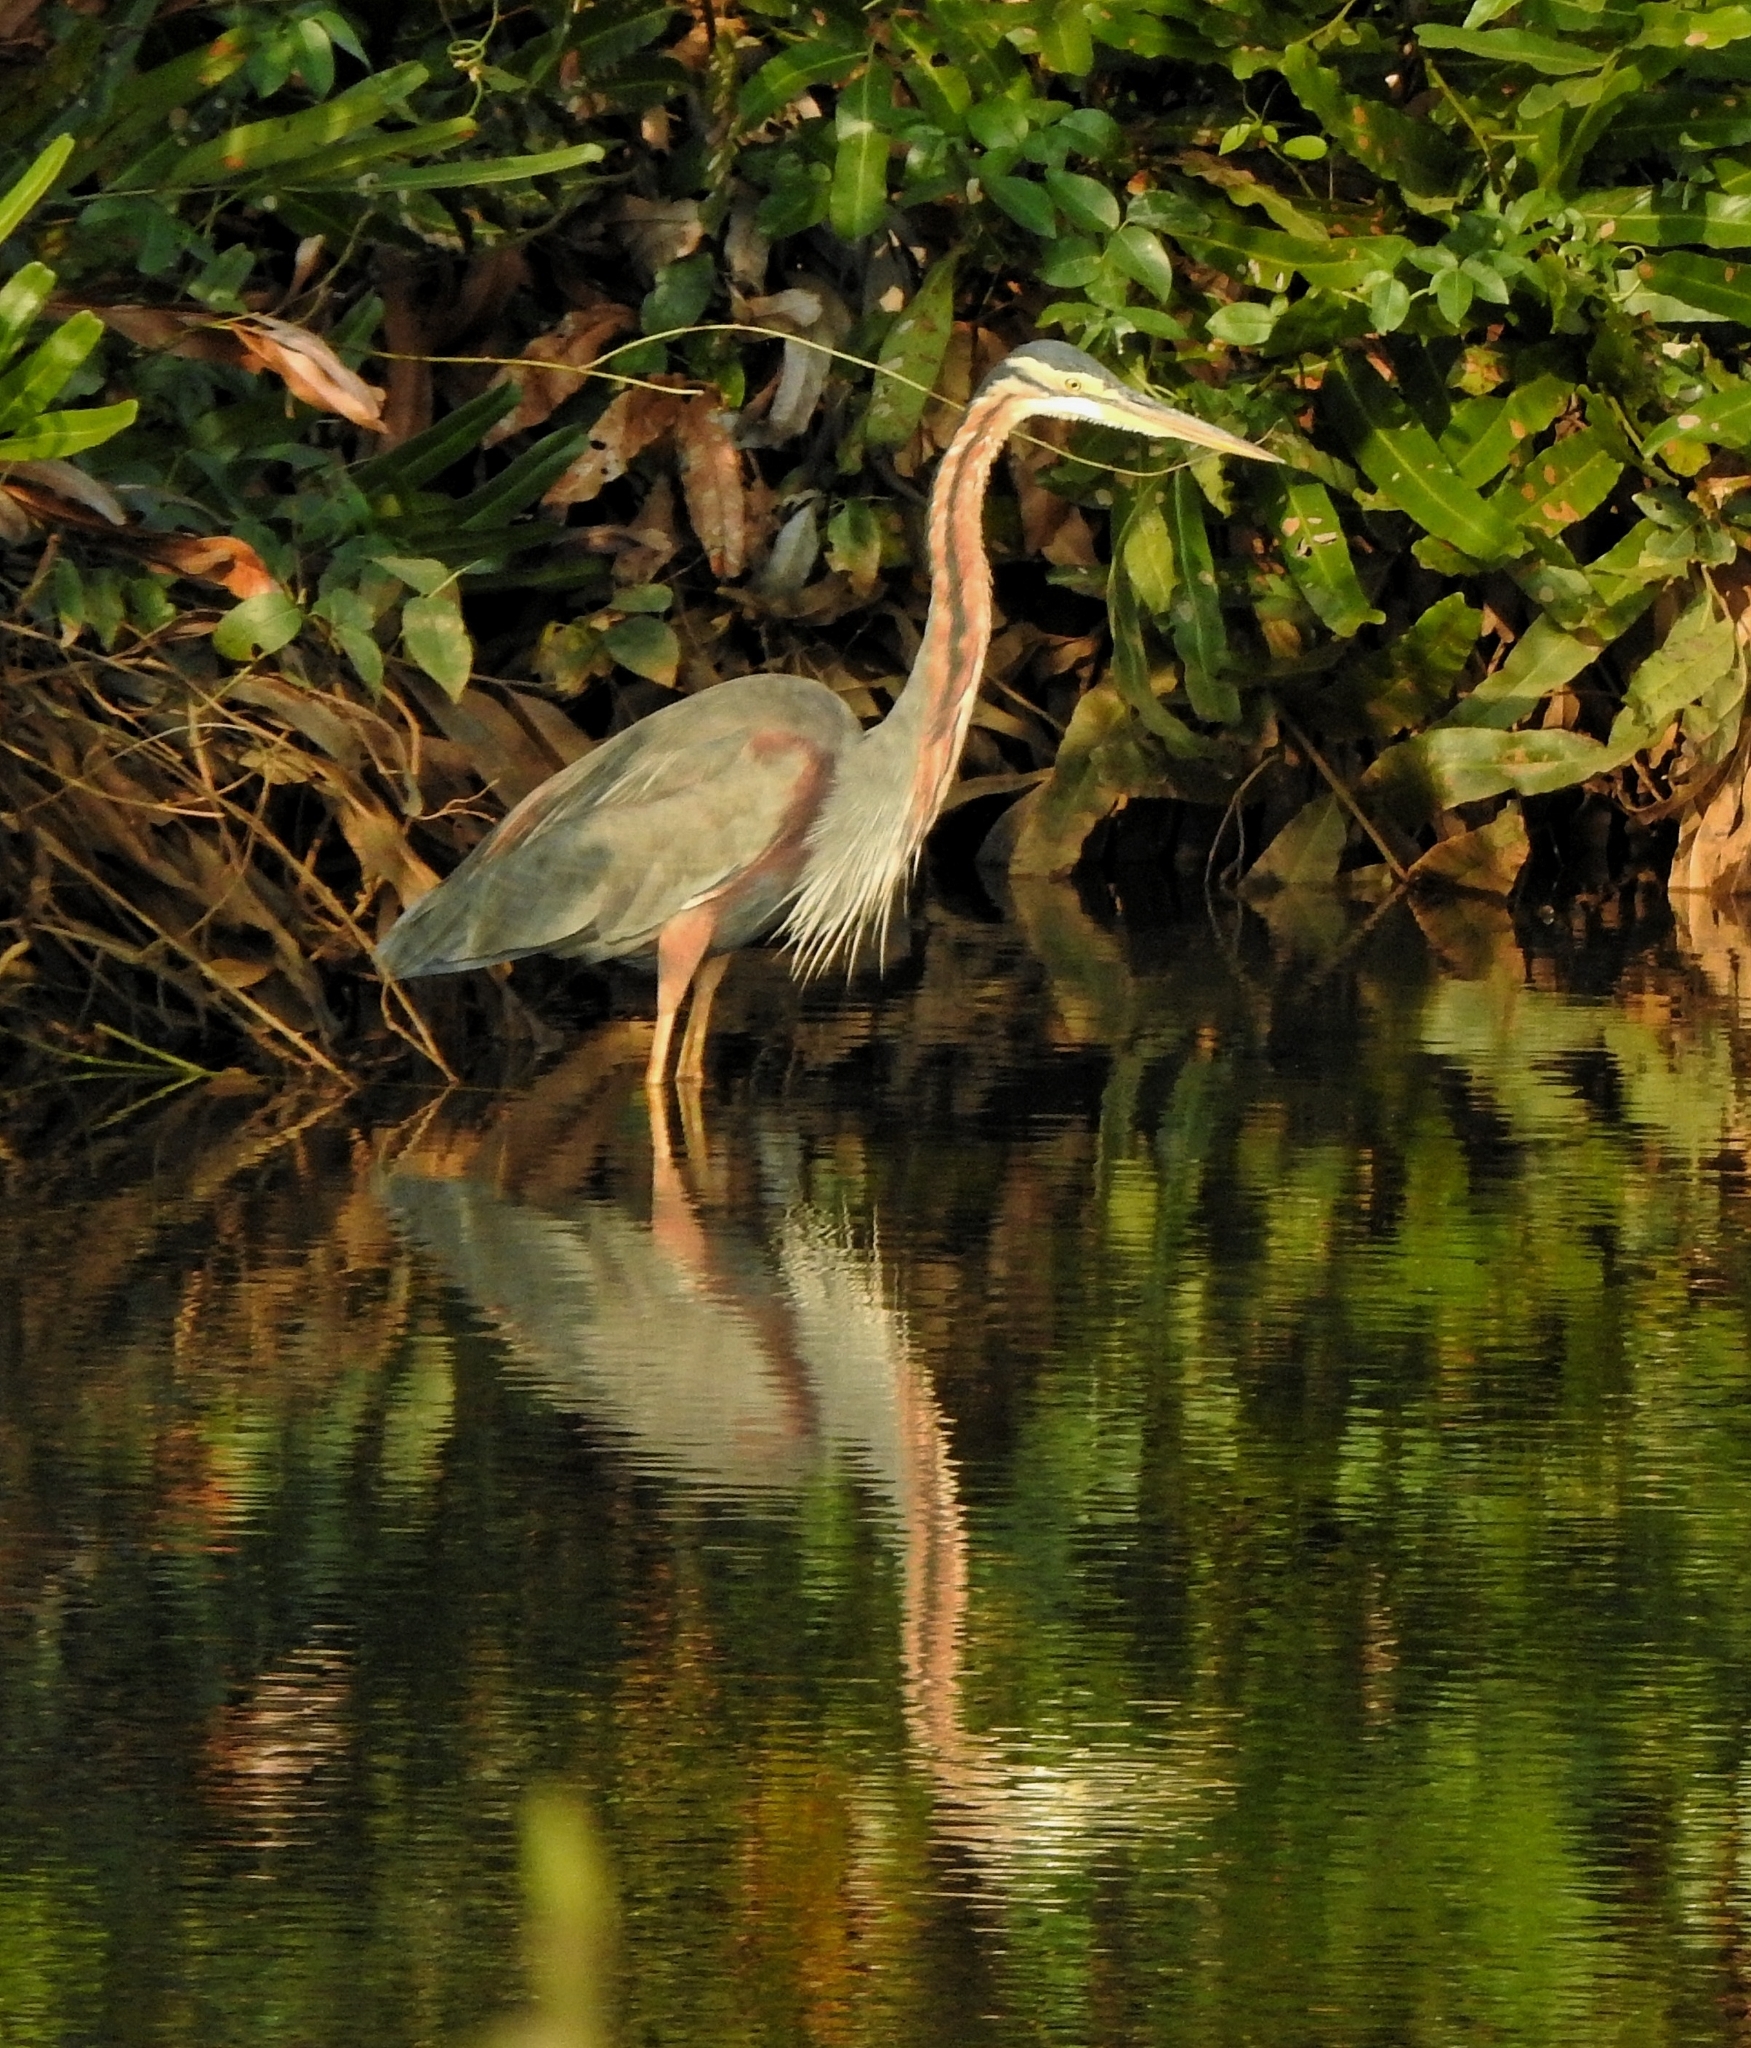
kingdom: Animalia
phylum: Chordata
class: Aves
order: Pelecaniformes
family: Ardeidae
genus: Ardea
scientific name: Ardea purpurea
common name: Purple heron
